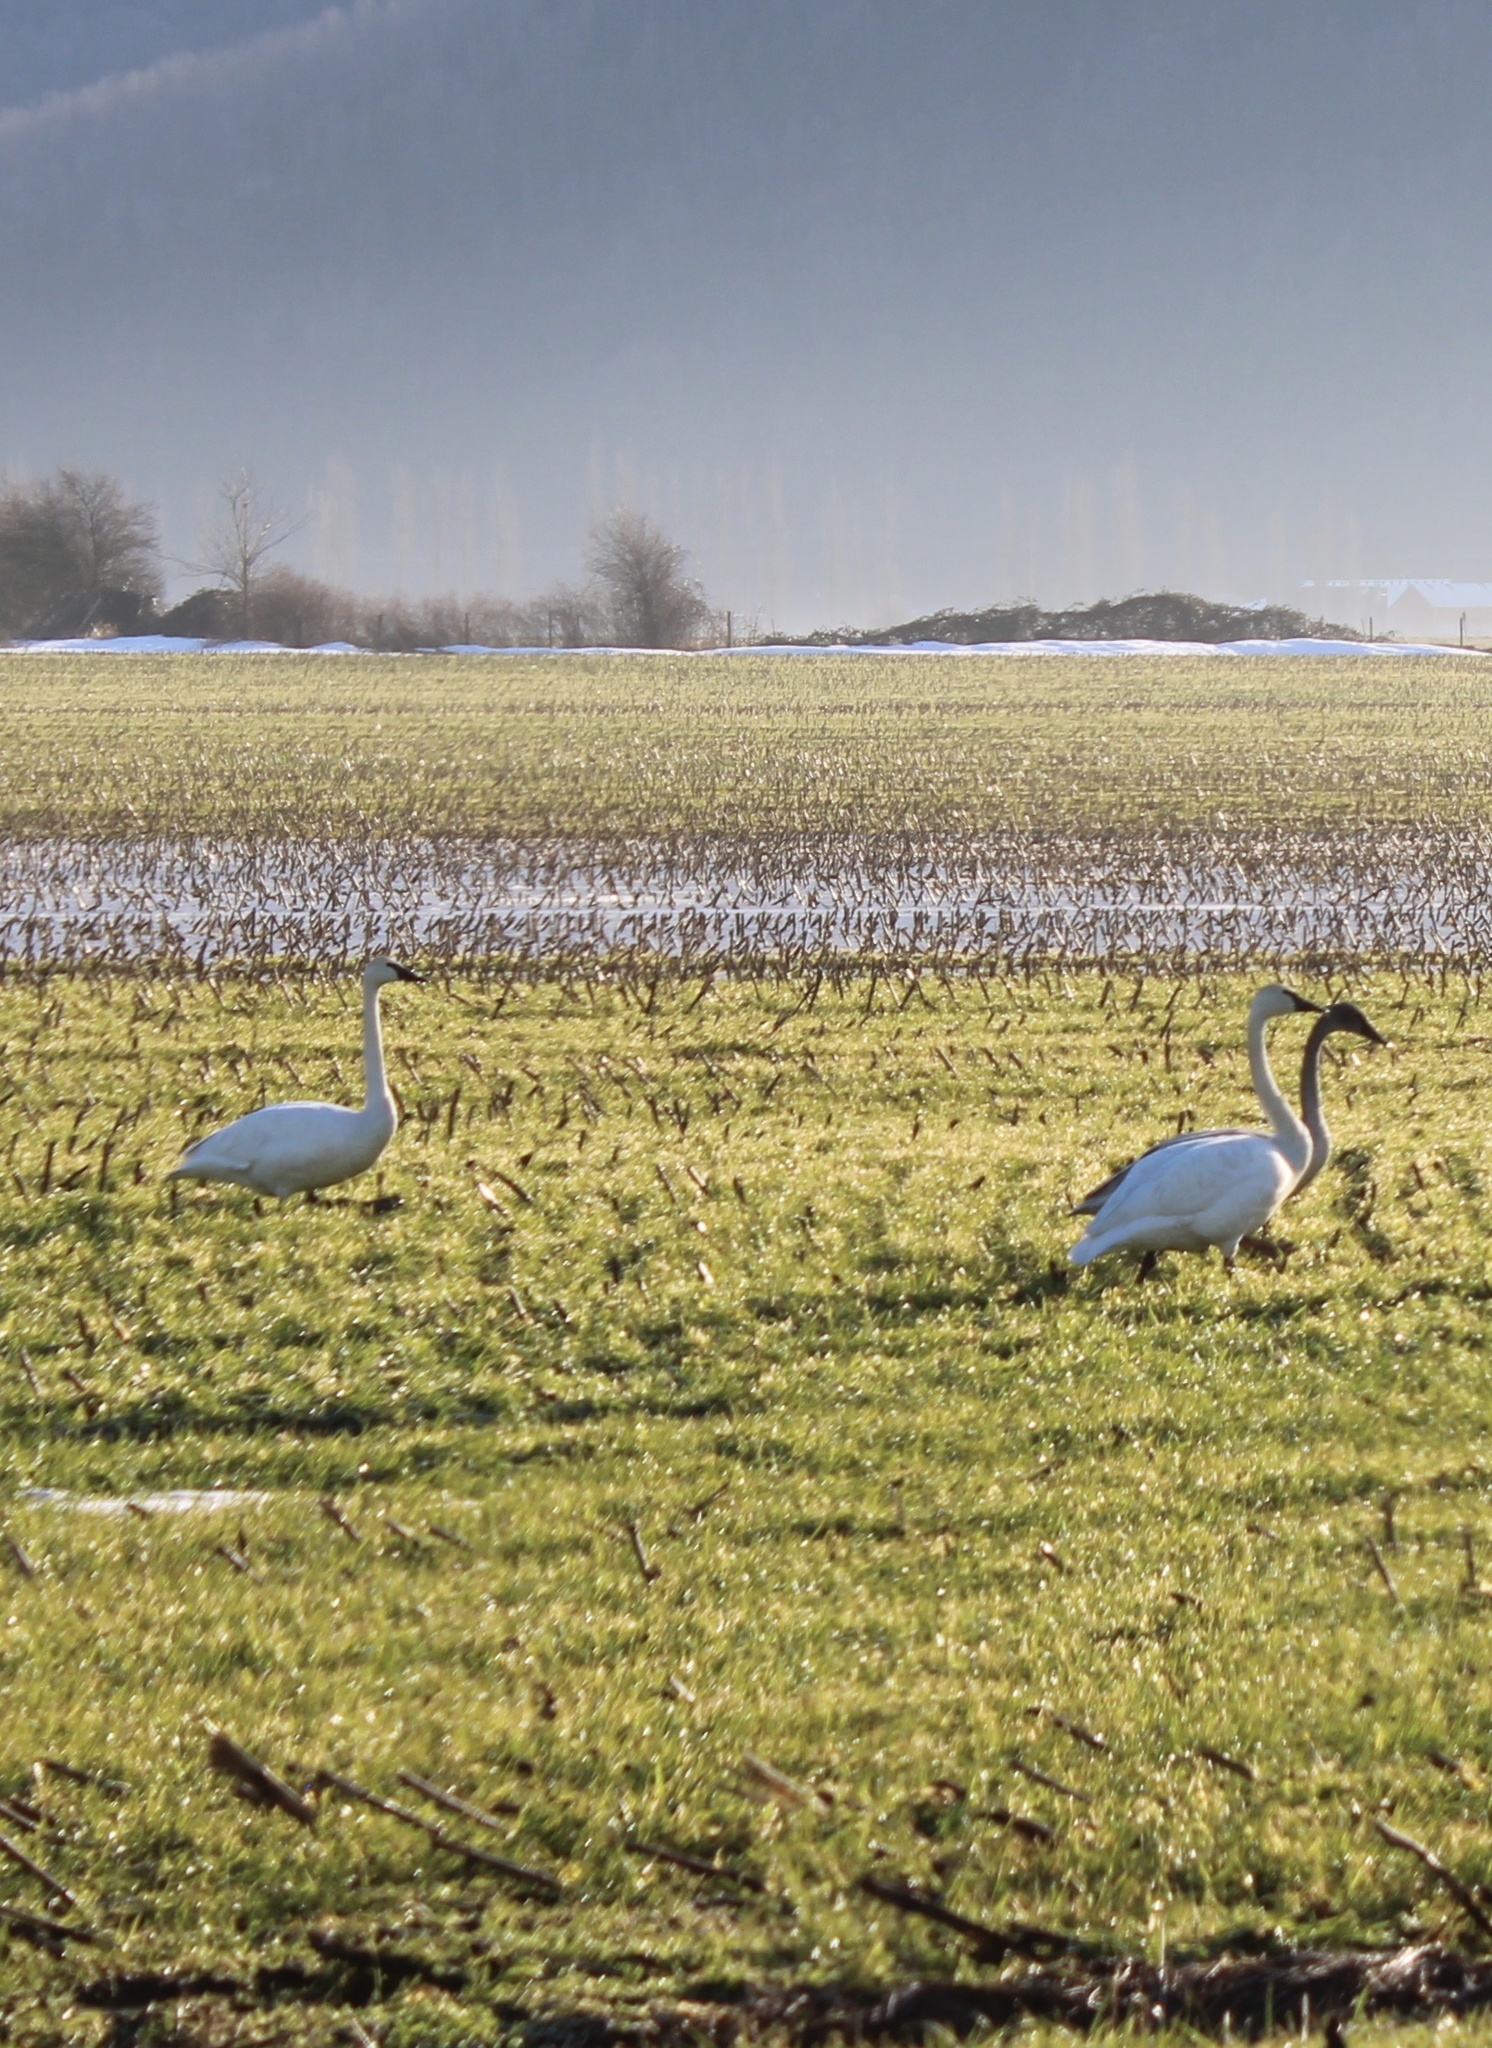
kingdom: Animalia
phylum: Chordata
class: Aves
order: Anseriformes
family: Anatidae
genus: Cygnus
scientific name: Cygnus buccinator
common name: Trumpeter swan
